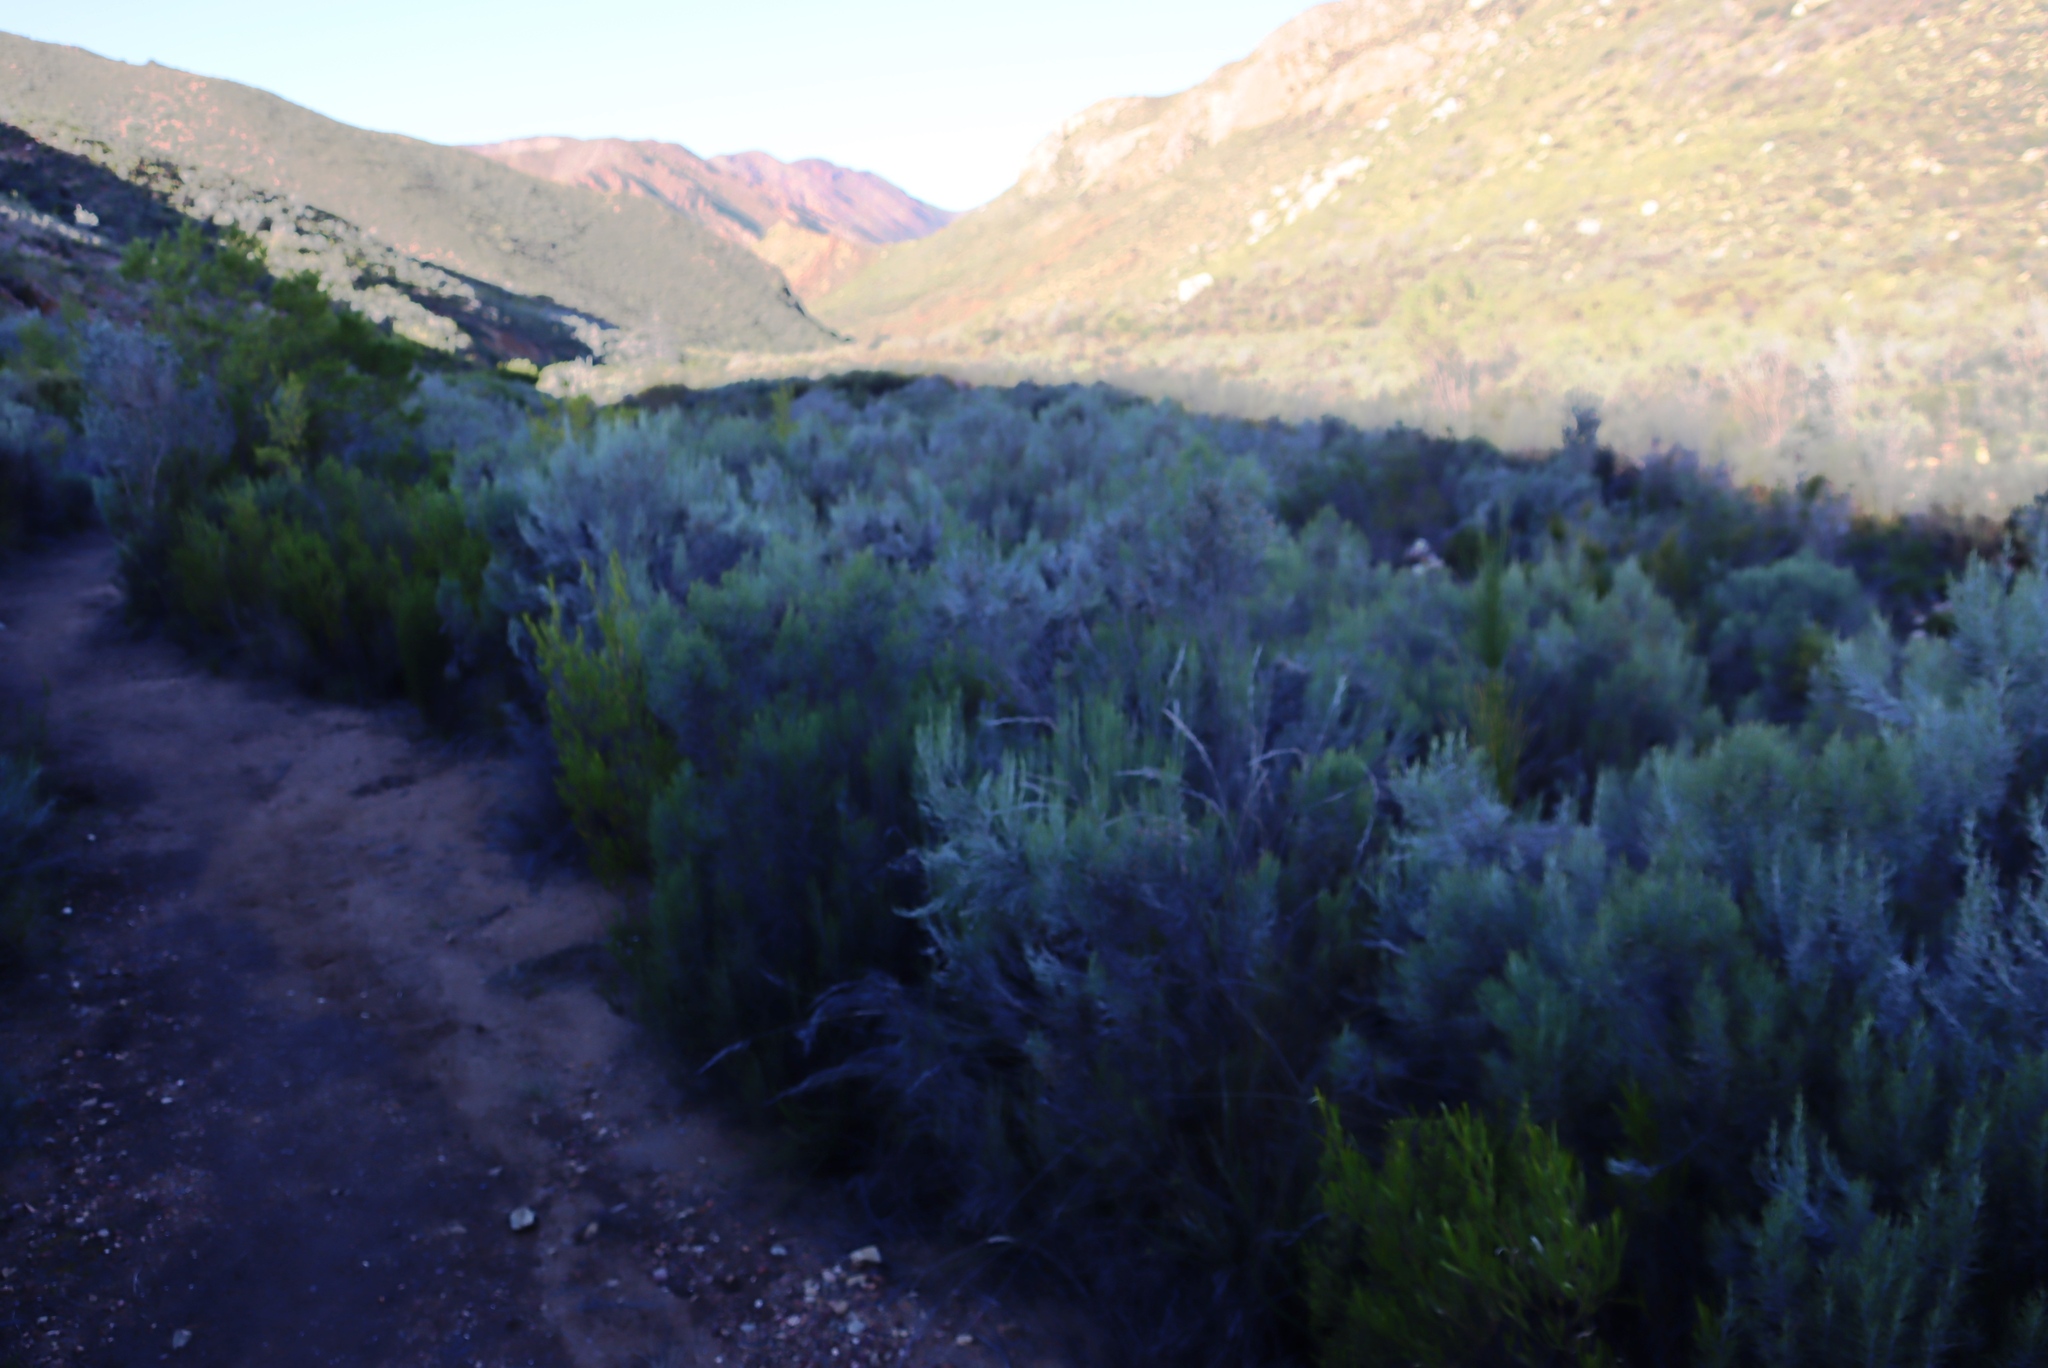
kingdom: Plantae
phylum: Tracheophyta
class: Magnoliopsida
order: Asterales
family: Asteraceae
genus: Dicerothamnus
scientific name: Dicerothamnus rhinocerotis
